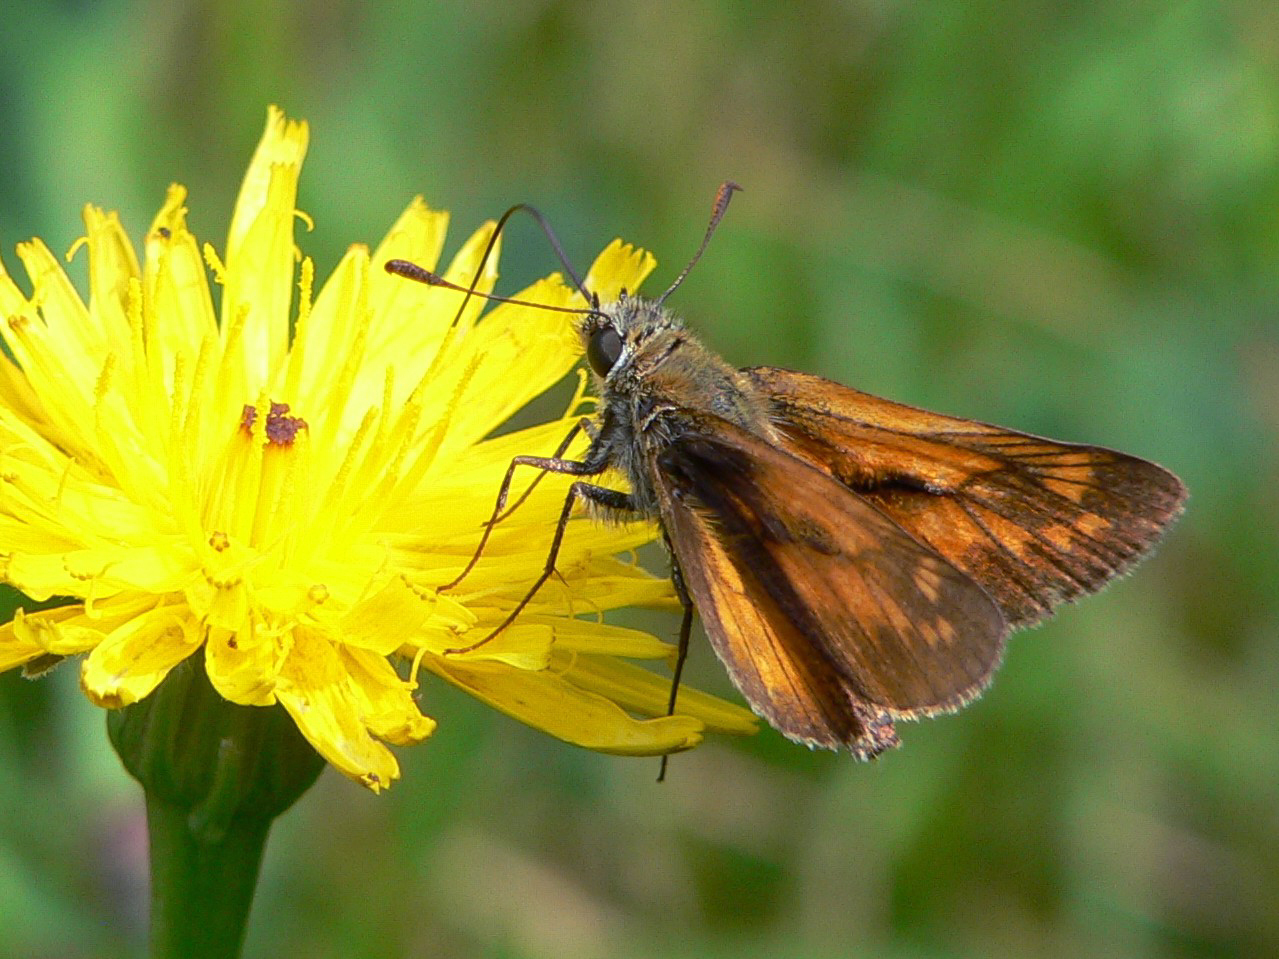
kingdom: Animalia
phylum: Arthropoda
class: Insecta
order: Lepidoptera
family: Hesperiidae
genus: Ochlodes
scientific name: Ochlodes venata
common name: Large skipper
